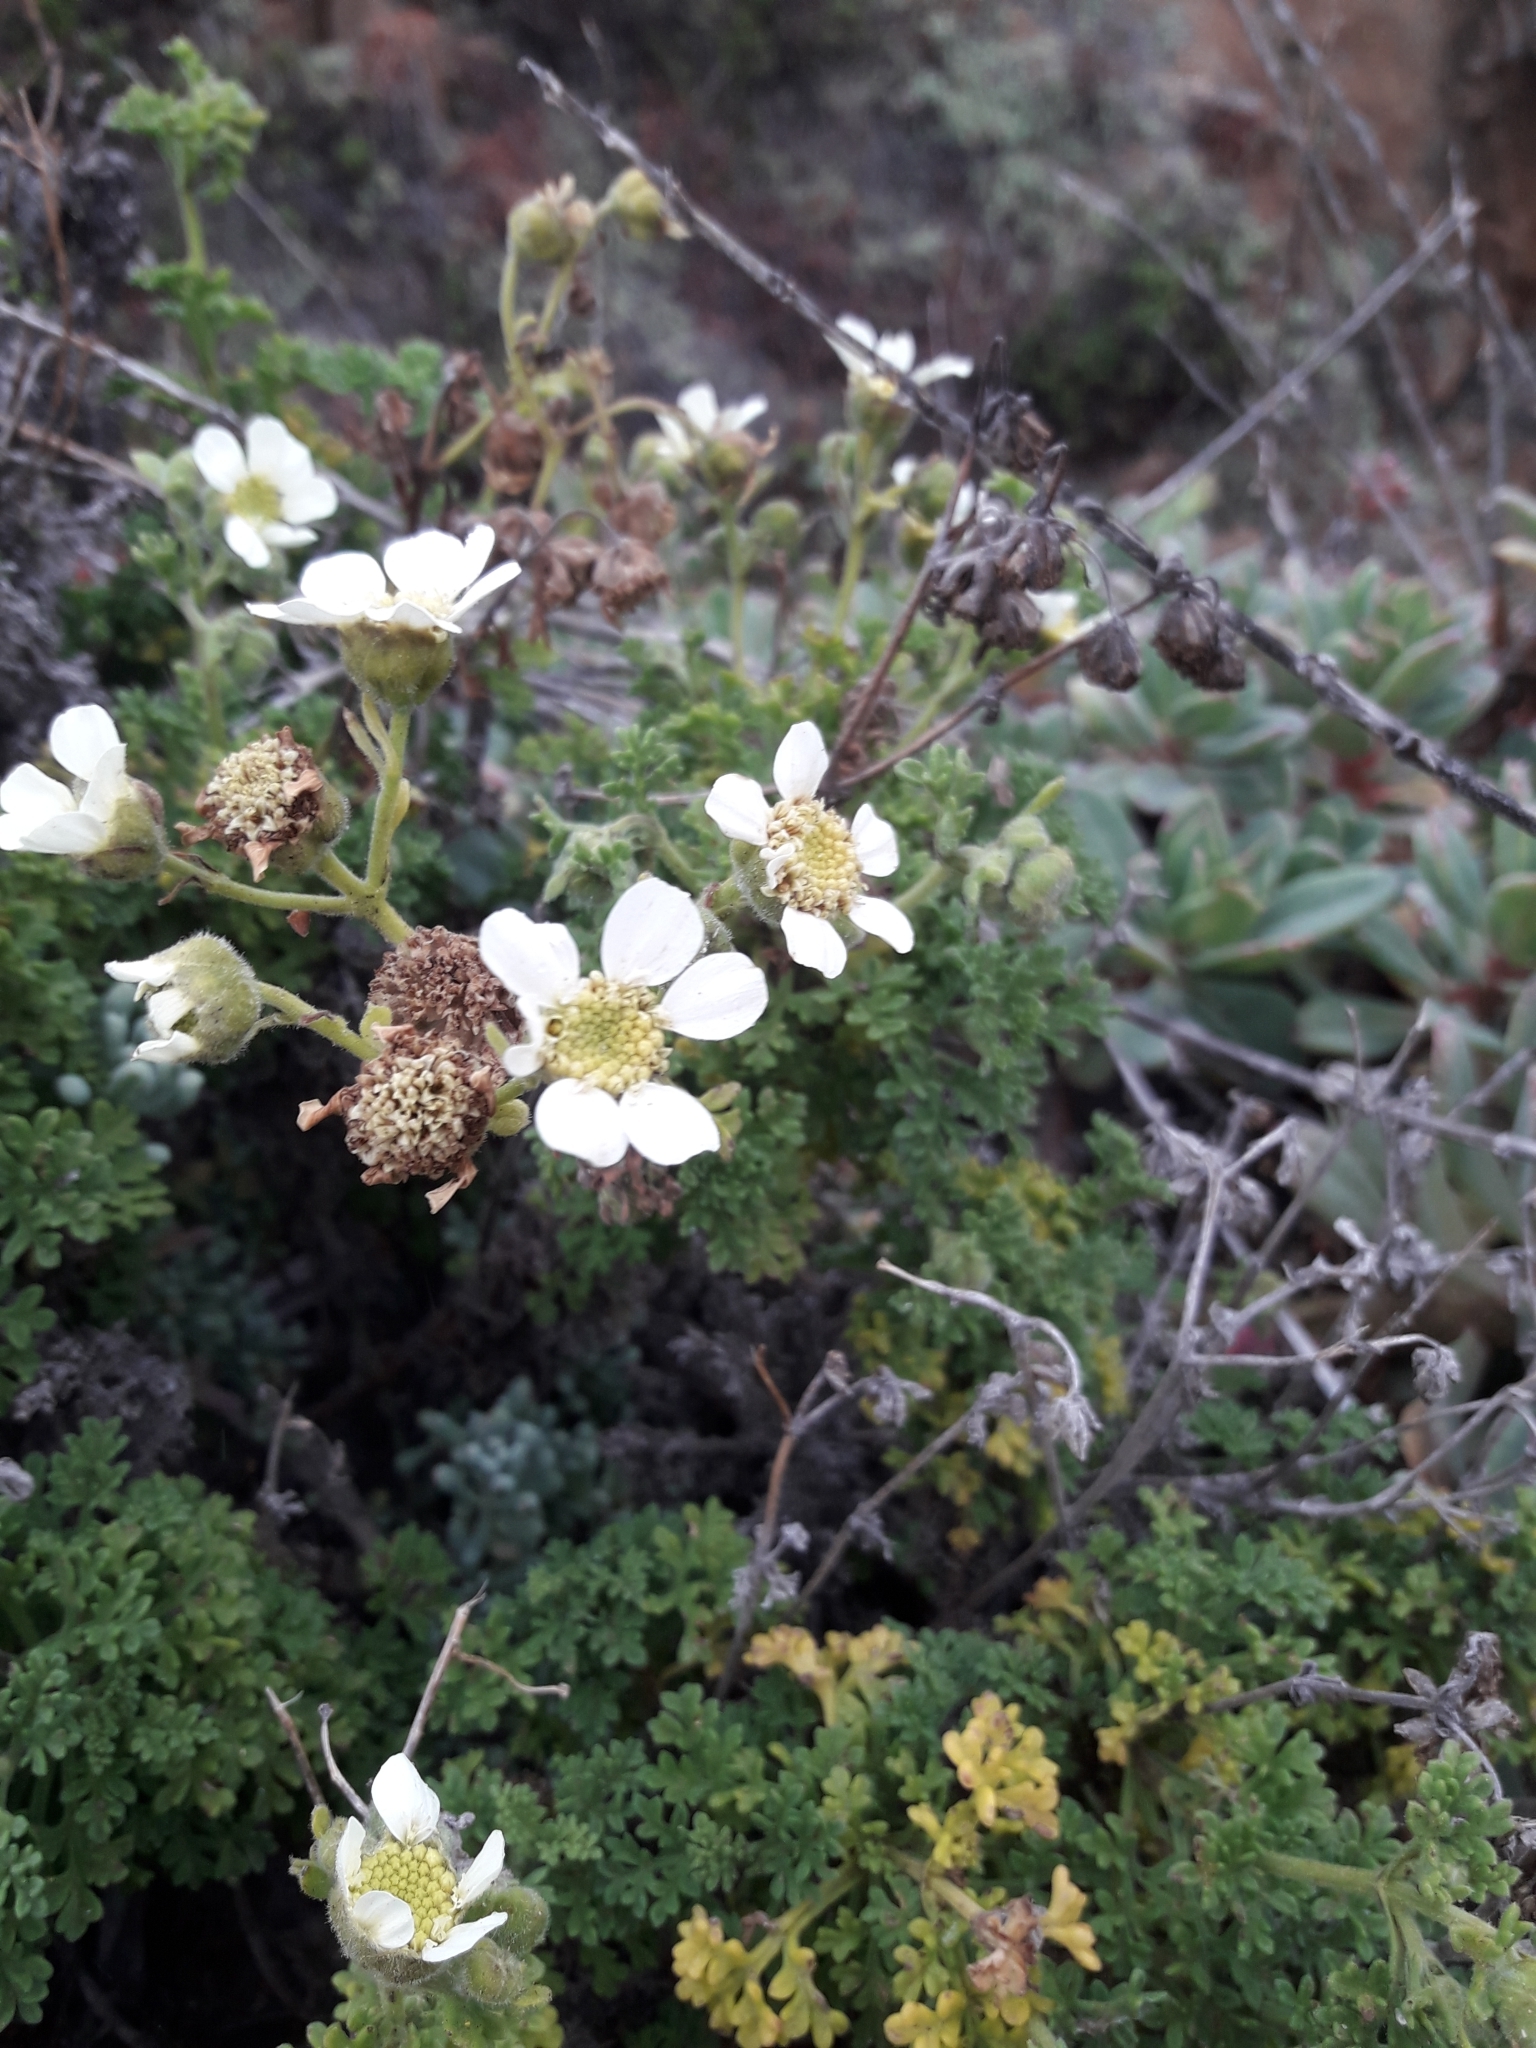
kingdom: Plantae
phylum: Tracheophyta
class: Magnoliopsida
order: Asterales
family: Asteraceae
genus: Bahia
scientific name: Bahia ambrosioides
